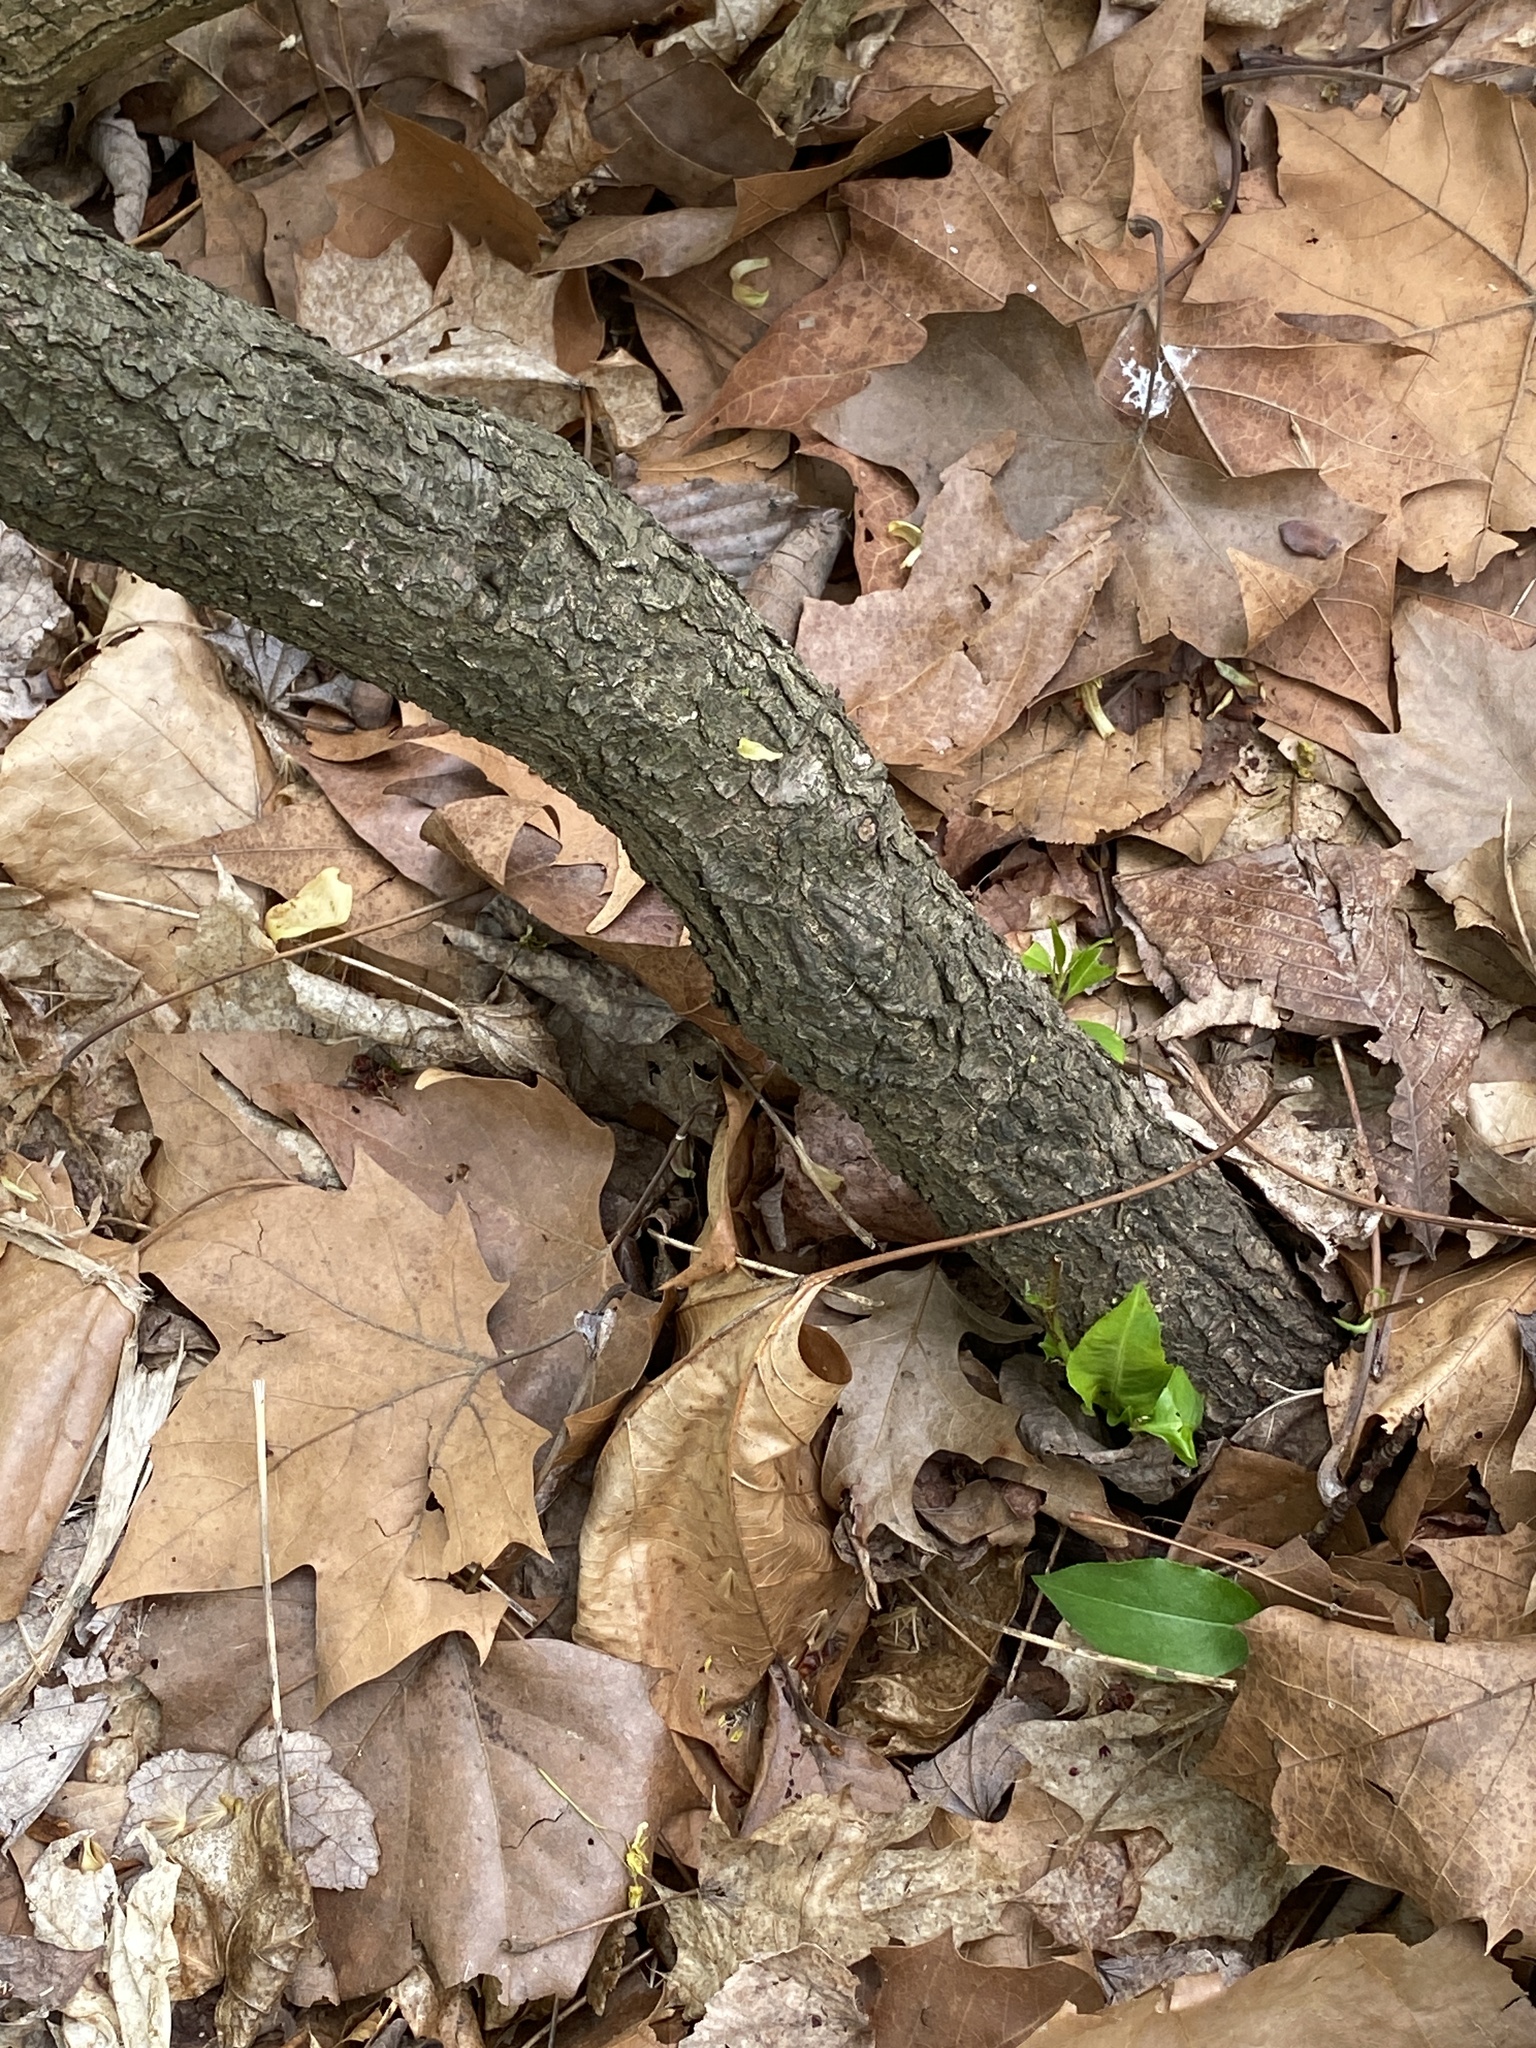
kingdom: Plantae
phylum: Tracheophyta
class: Magnoliopsida
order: Rosales
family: Rosaceae
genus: Prunus
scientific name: Prunus serotina
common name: Black cherry
